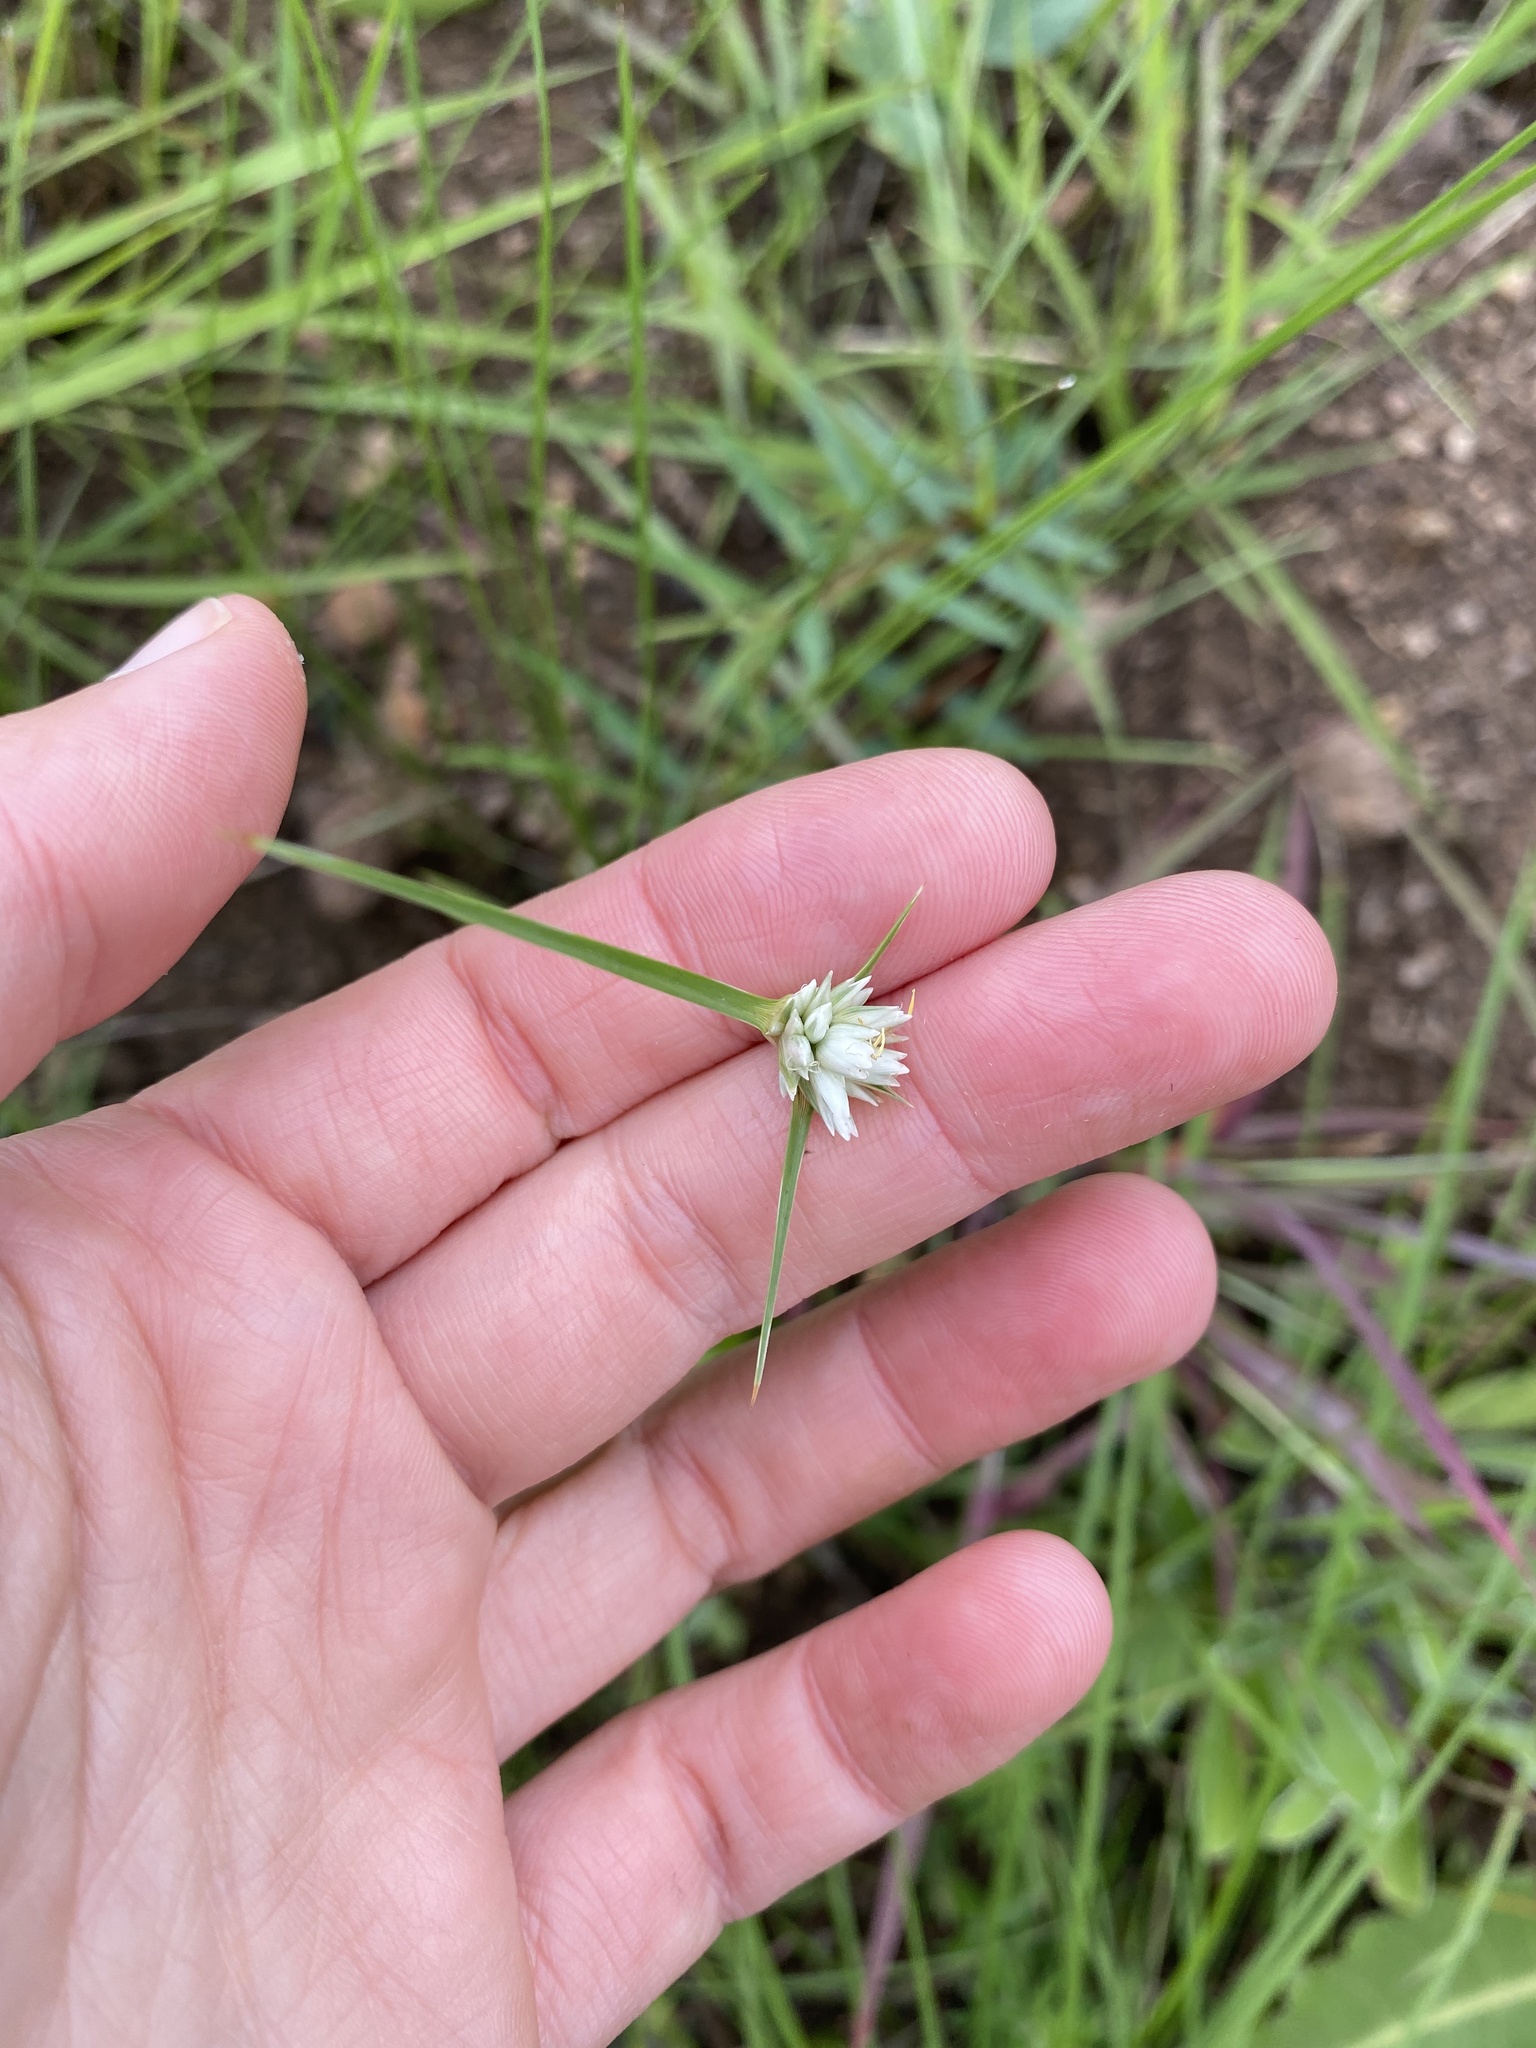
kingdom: Plantae
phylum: Tracheophyta
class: Liliopsida
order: Poales
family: Cyperaceae
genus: Cyperus
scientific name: Cyperus niveus
